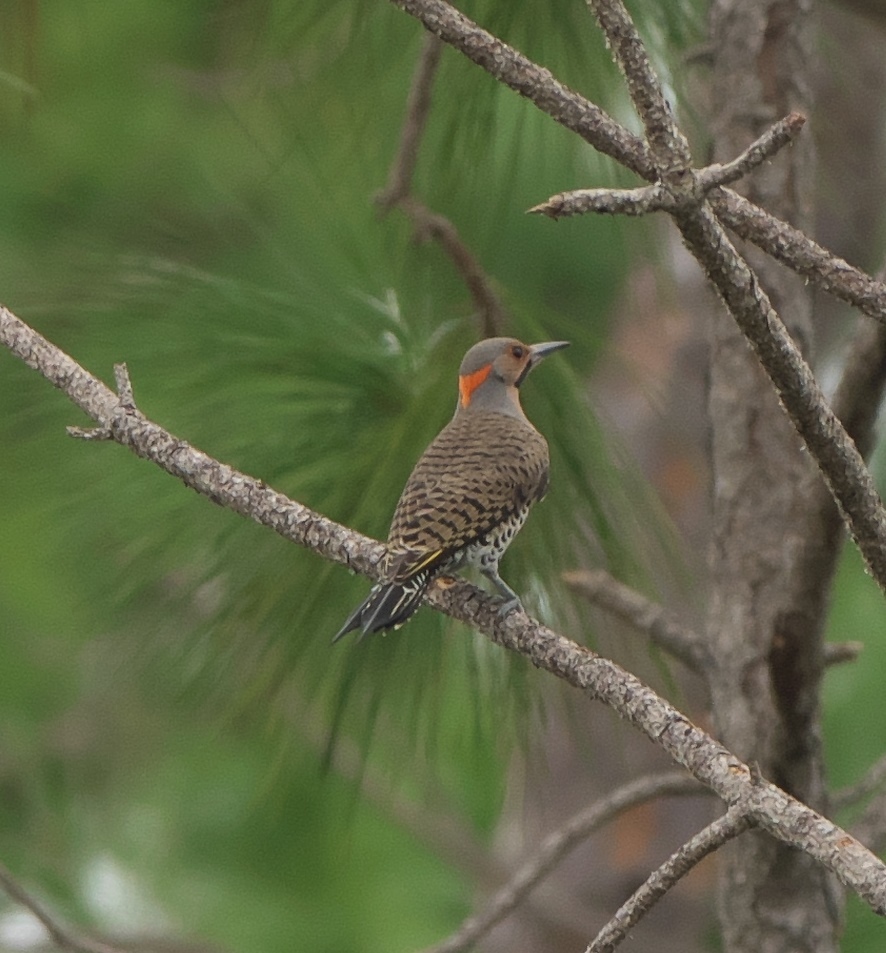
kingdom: Animalia
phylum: Chordata
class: Aves
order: Piciformes
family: Picidae
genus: Colaptes
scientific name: Colaptes auratus
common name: Northern flicker
